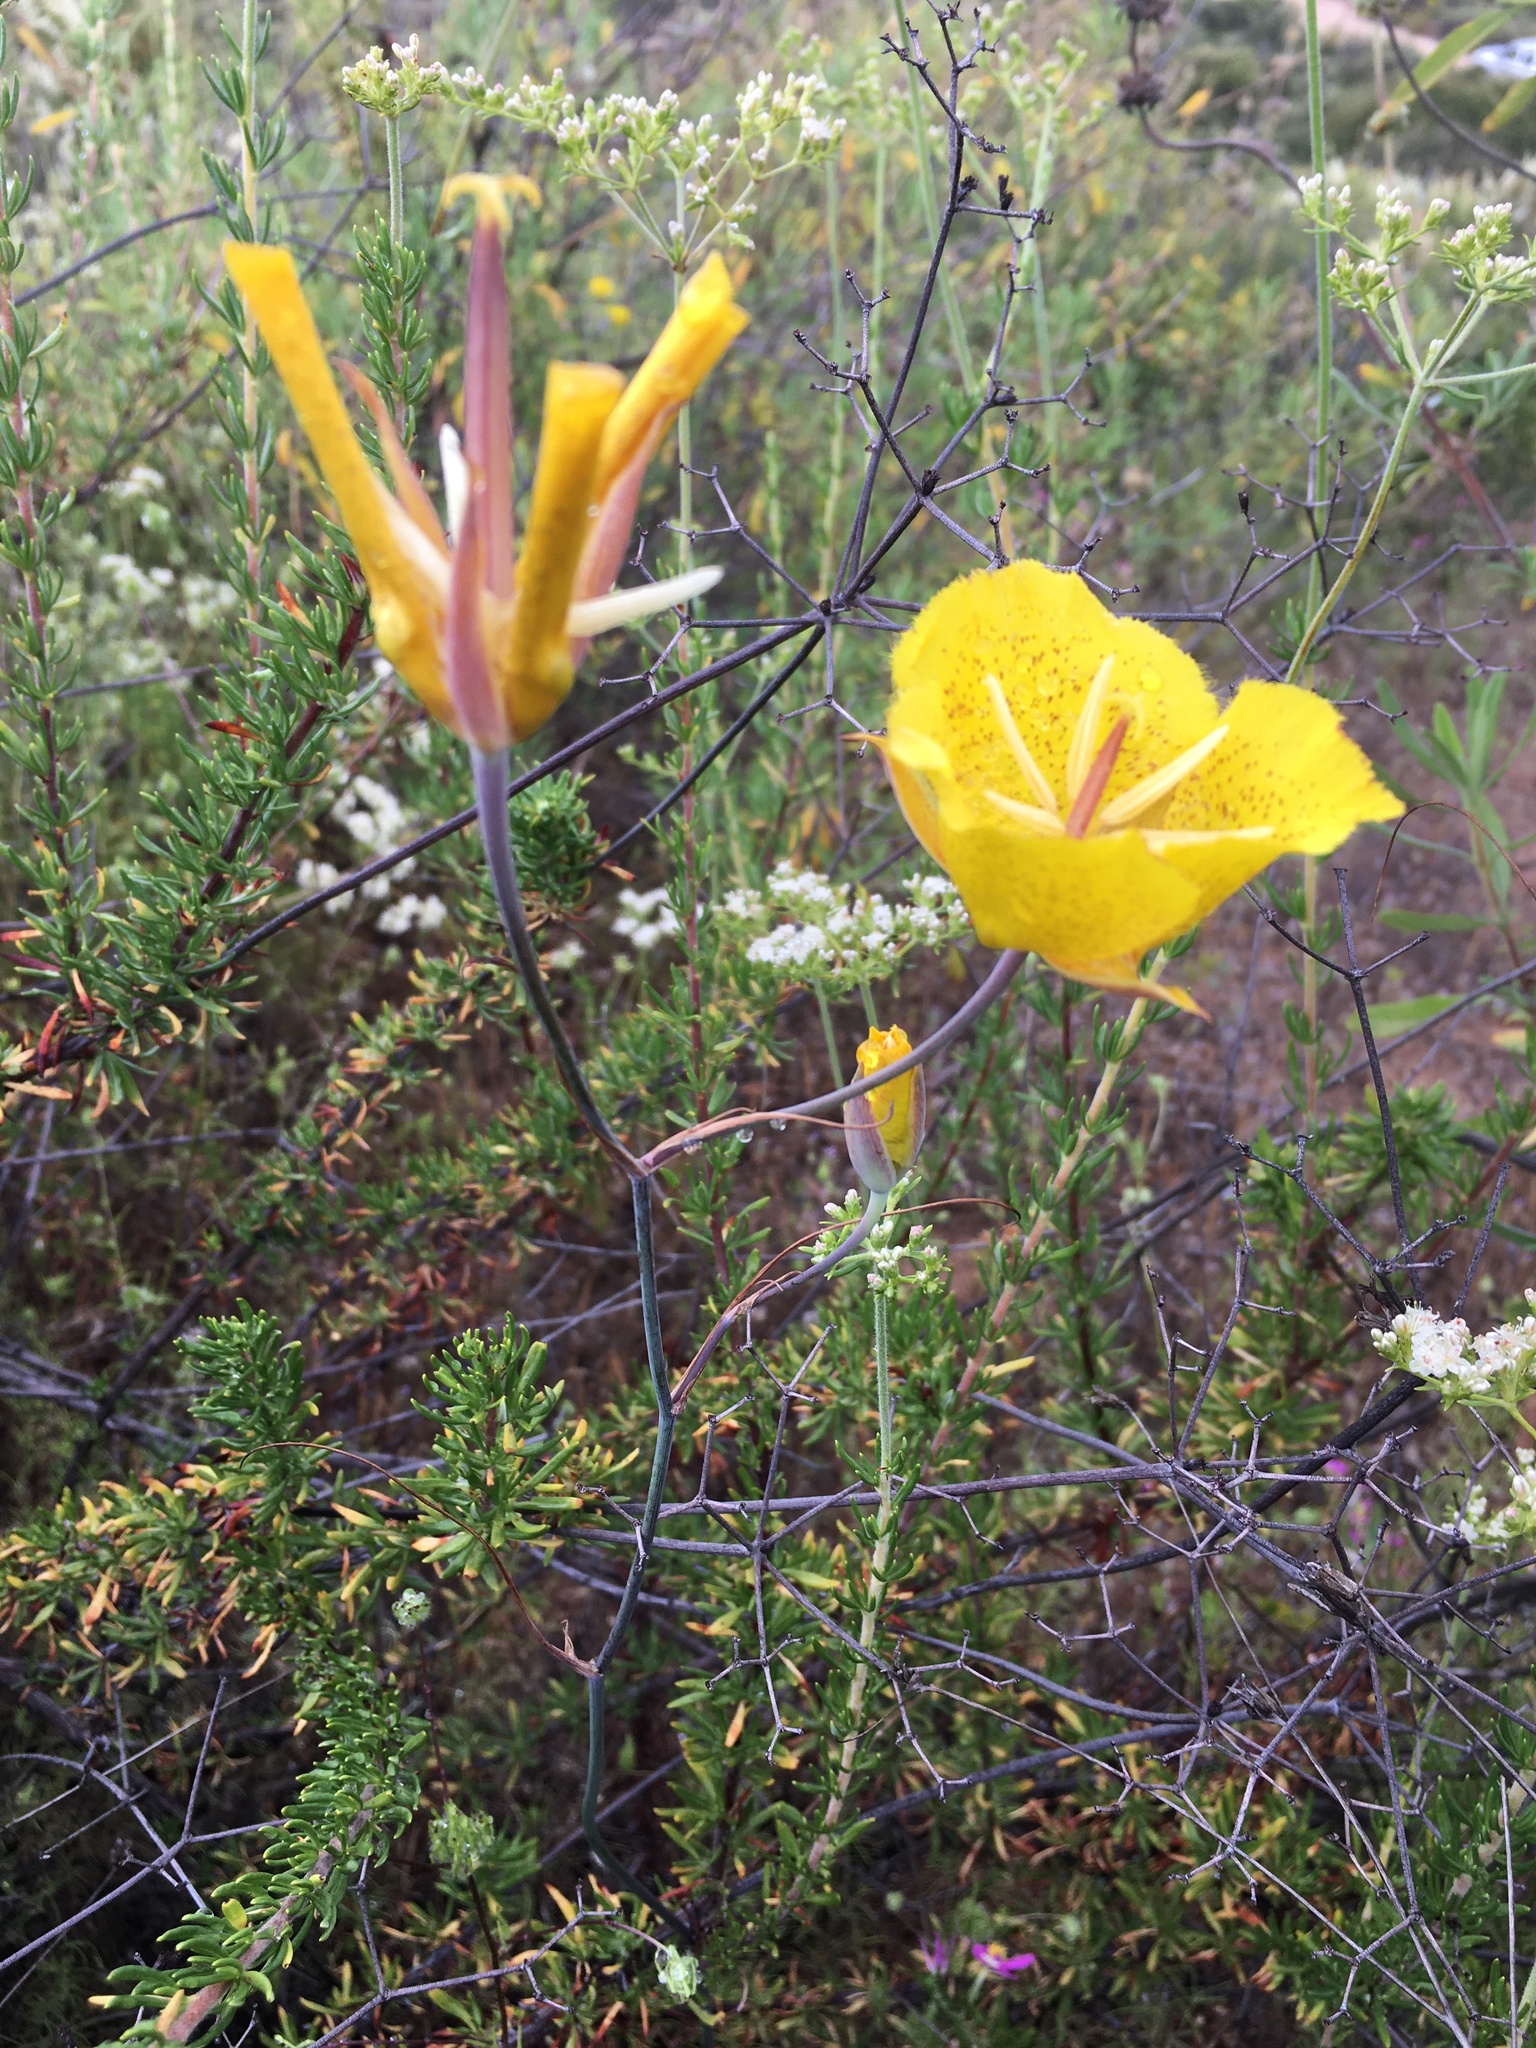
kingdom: Plantae
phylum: Tracheophyta
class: Liliopsida
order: Liliales
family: Liliaceae
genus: Calochortus
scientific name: Calochortus weedii
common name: Weed's mariposa-lily
